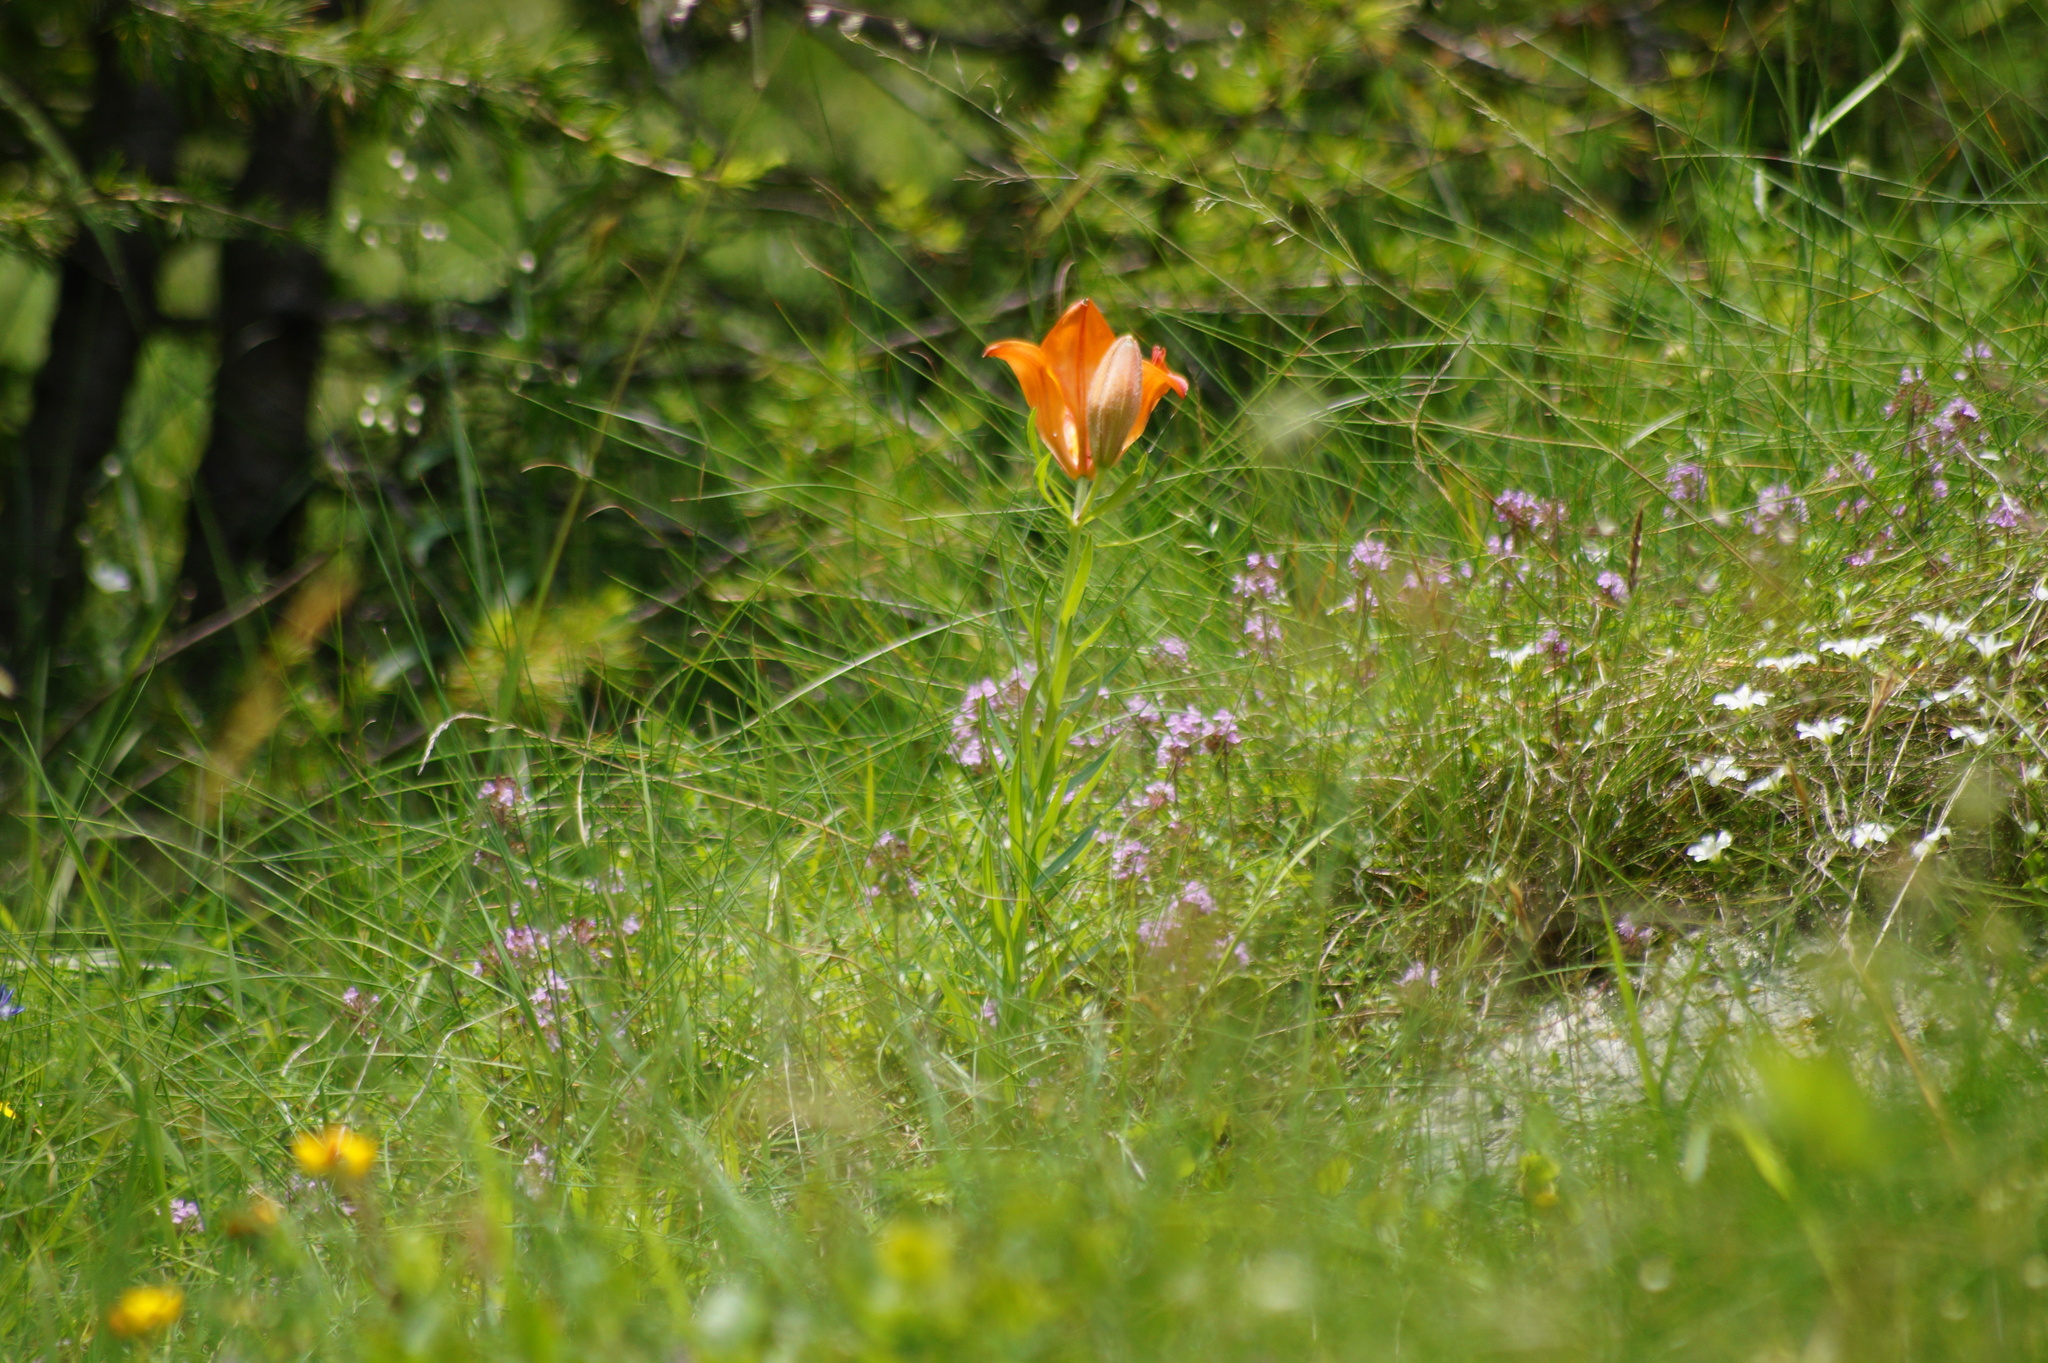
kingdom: Plantae
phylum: Tracheophyta
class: Liliopsida
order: Liliales
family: Liliaceae
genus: Lilium
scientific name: Lilium bulbiferum
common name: Orange lily
